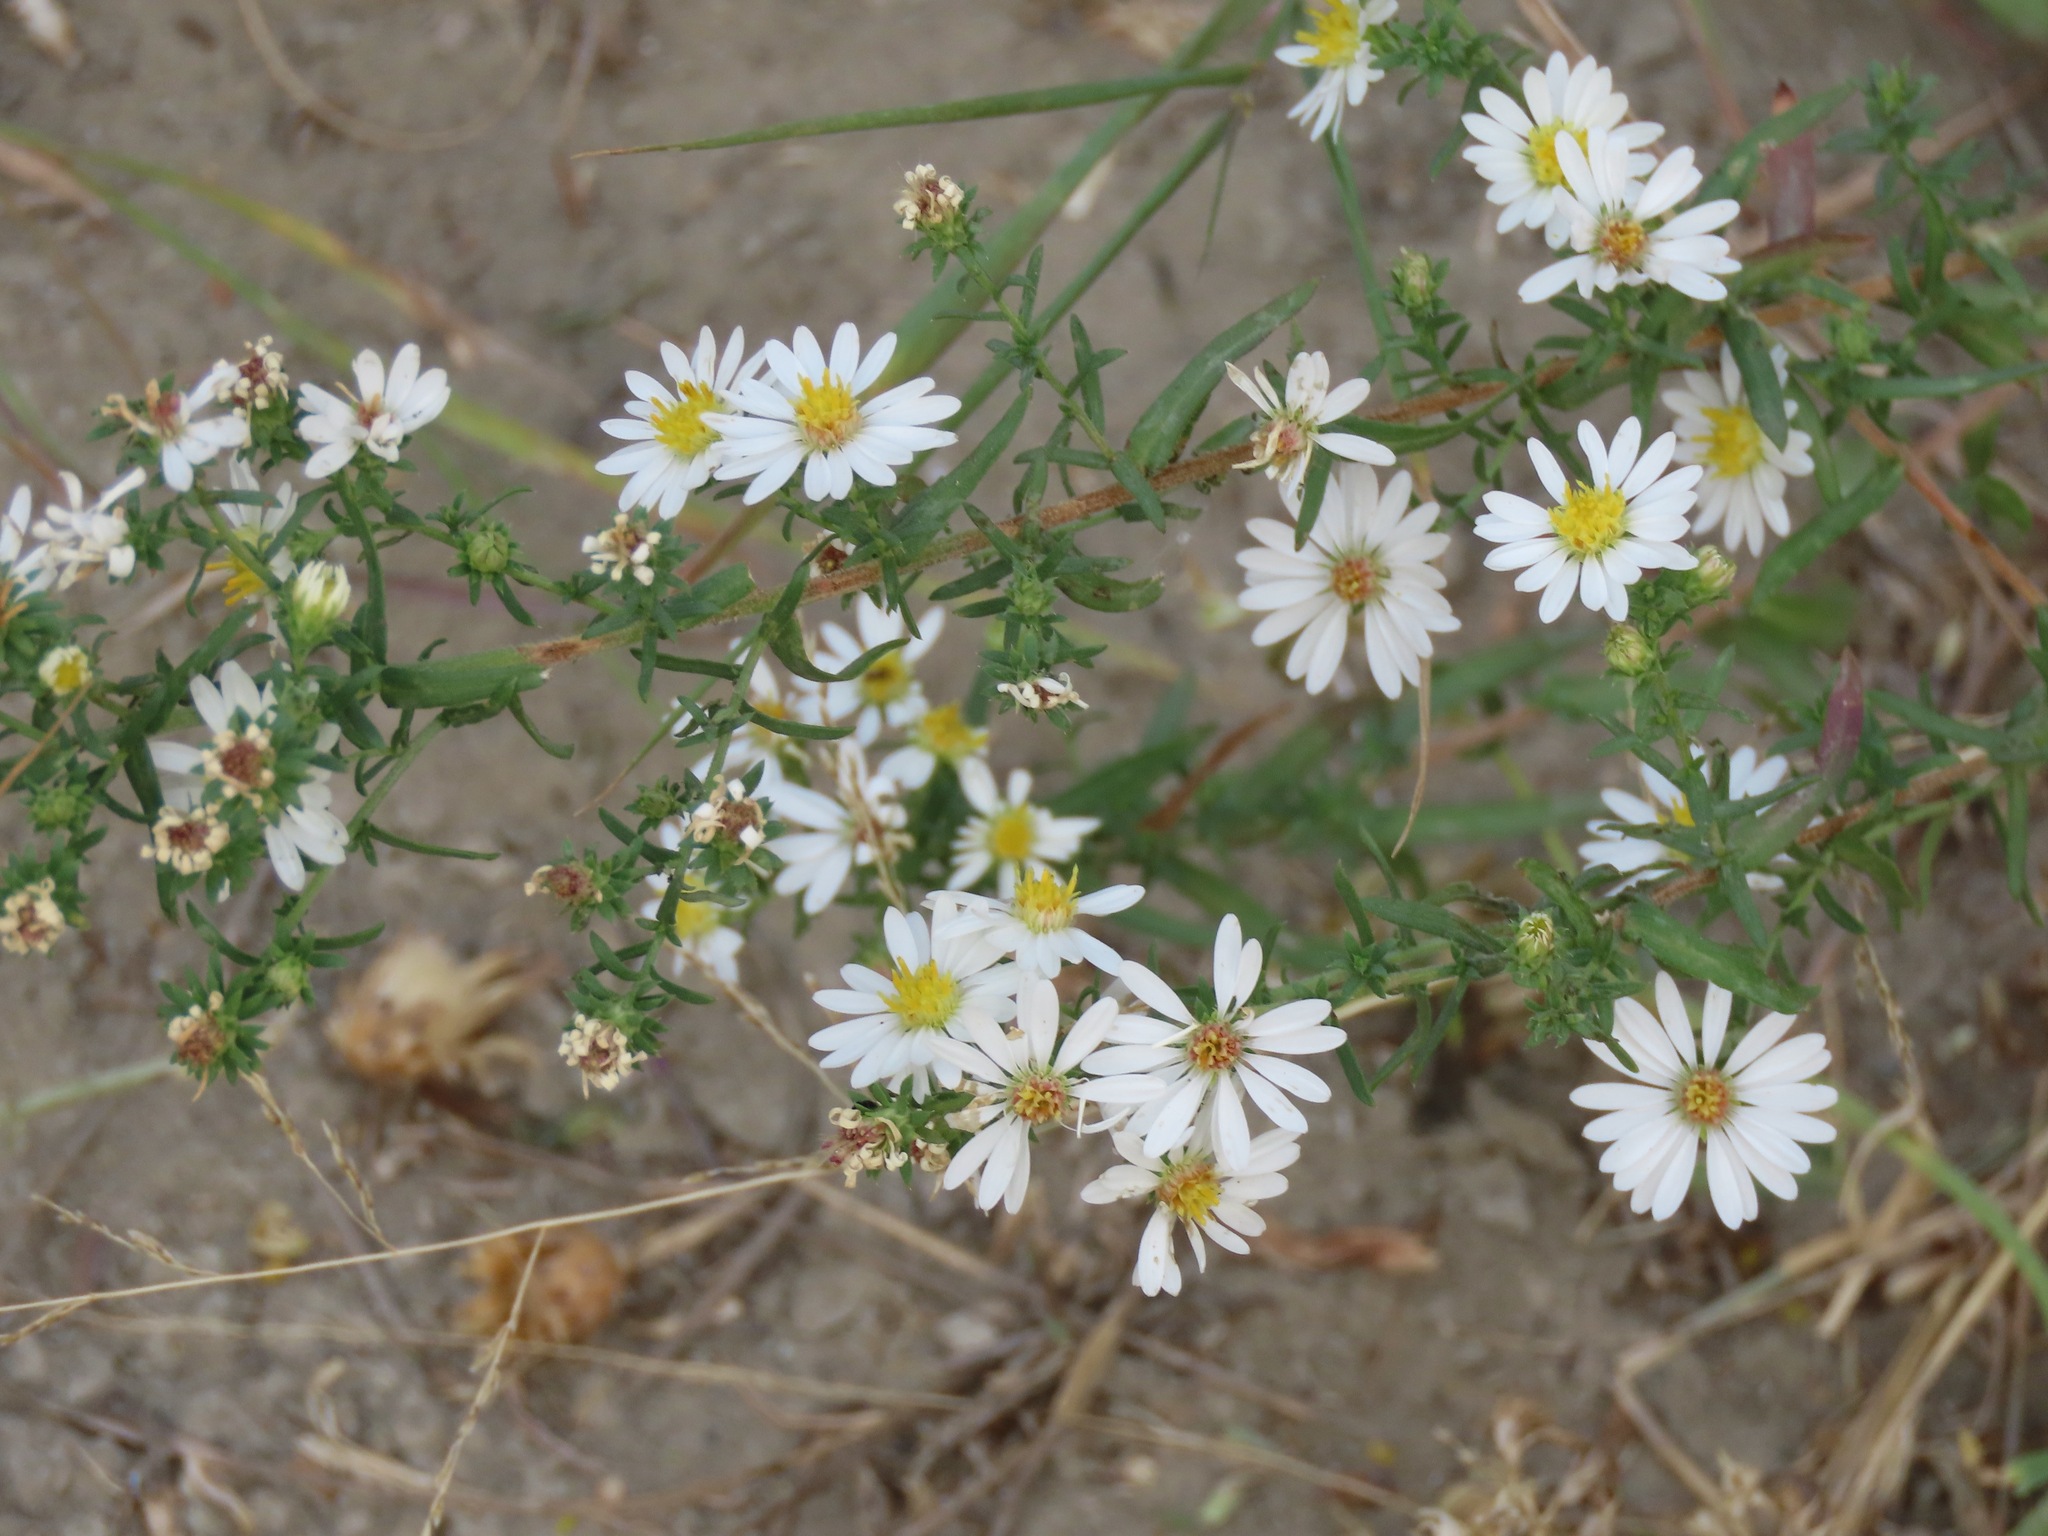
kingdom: Plantae
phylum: Tracheophyta
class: Magnoliopsida
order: Asterales
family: Asteraceae
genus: Symphyotrichum
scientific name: Symphyotrichum ericoides
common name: Heath aster
